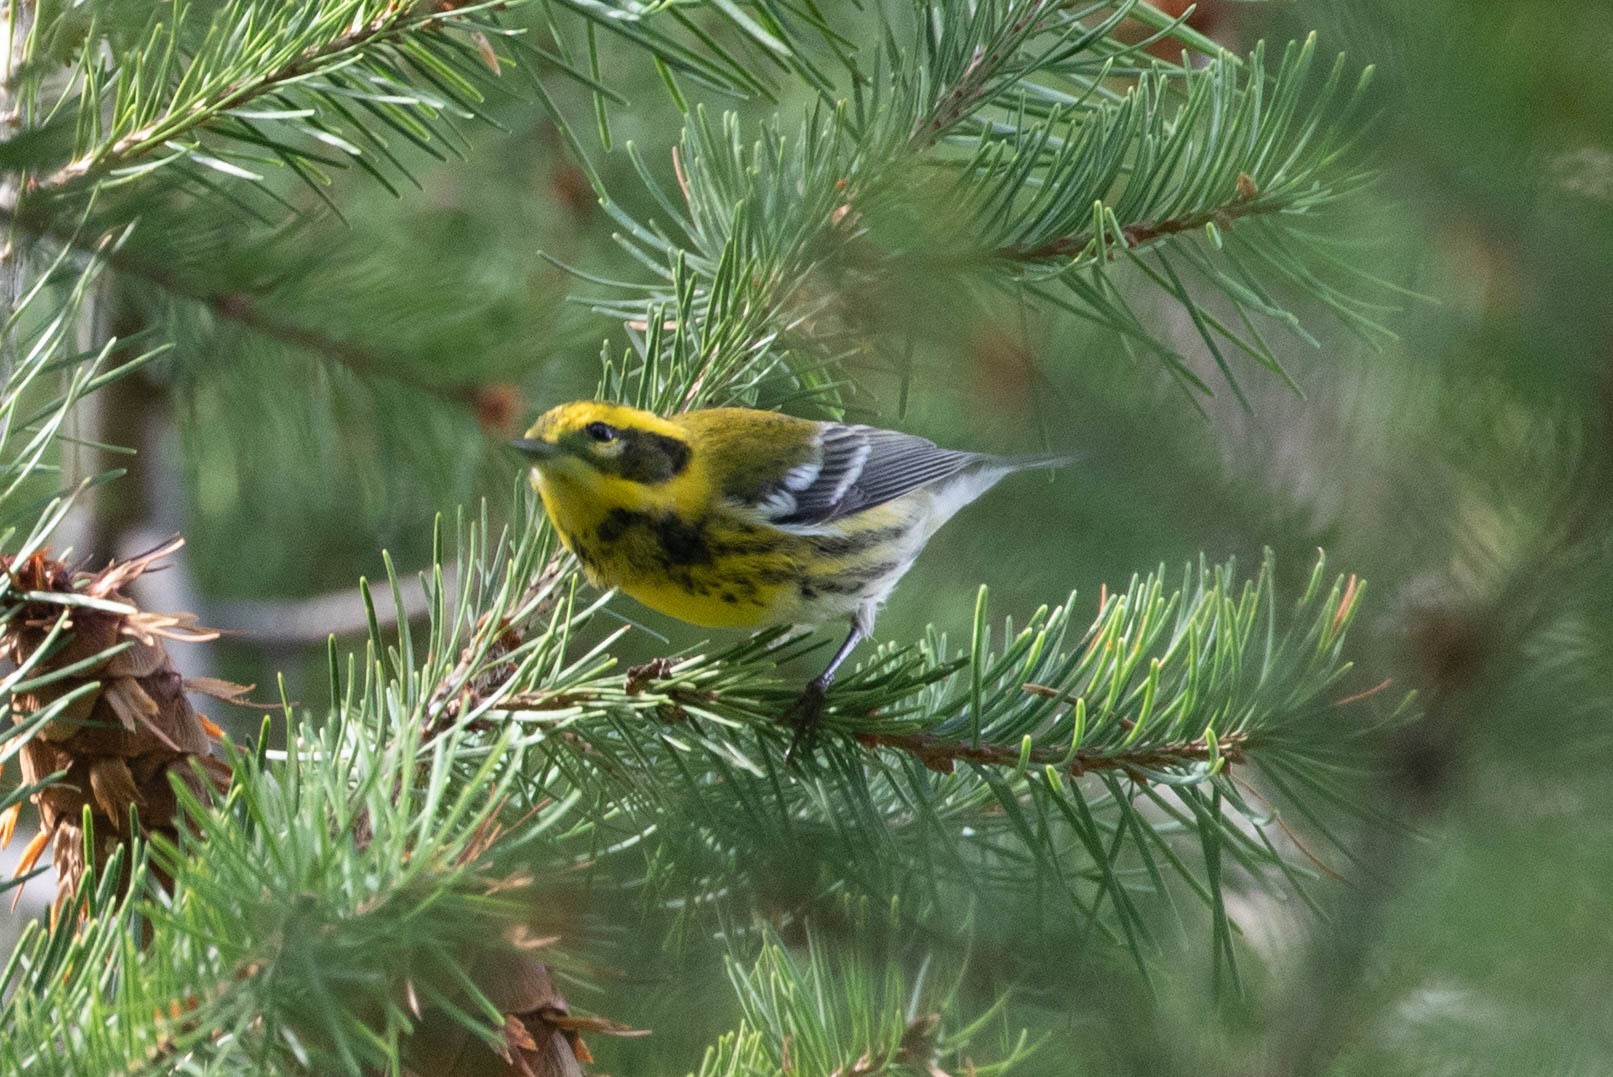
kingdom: Animalia
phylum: Chordata
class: Aves
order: Passeriformes
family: Parulidae
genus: Setophaga
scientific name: Setophaga townsendi
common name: Townsend's warbler
